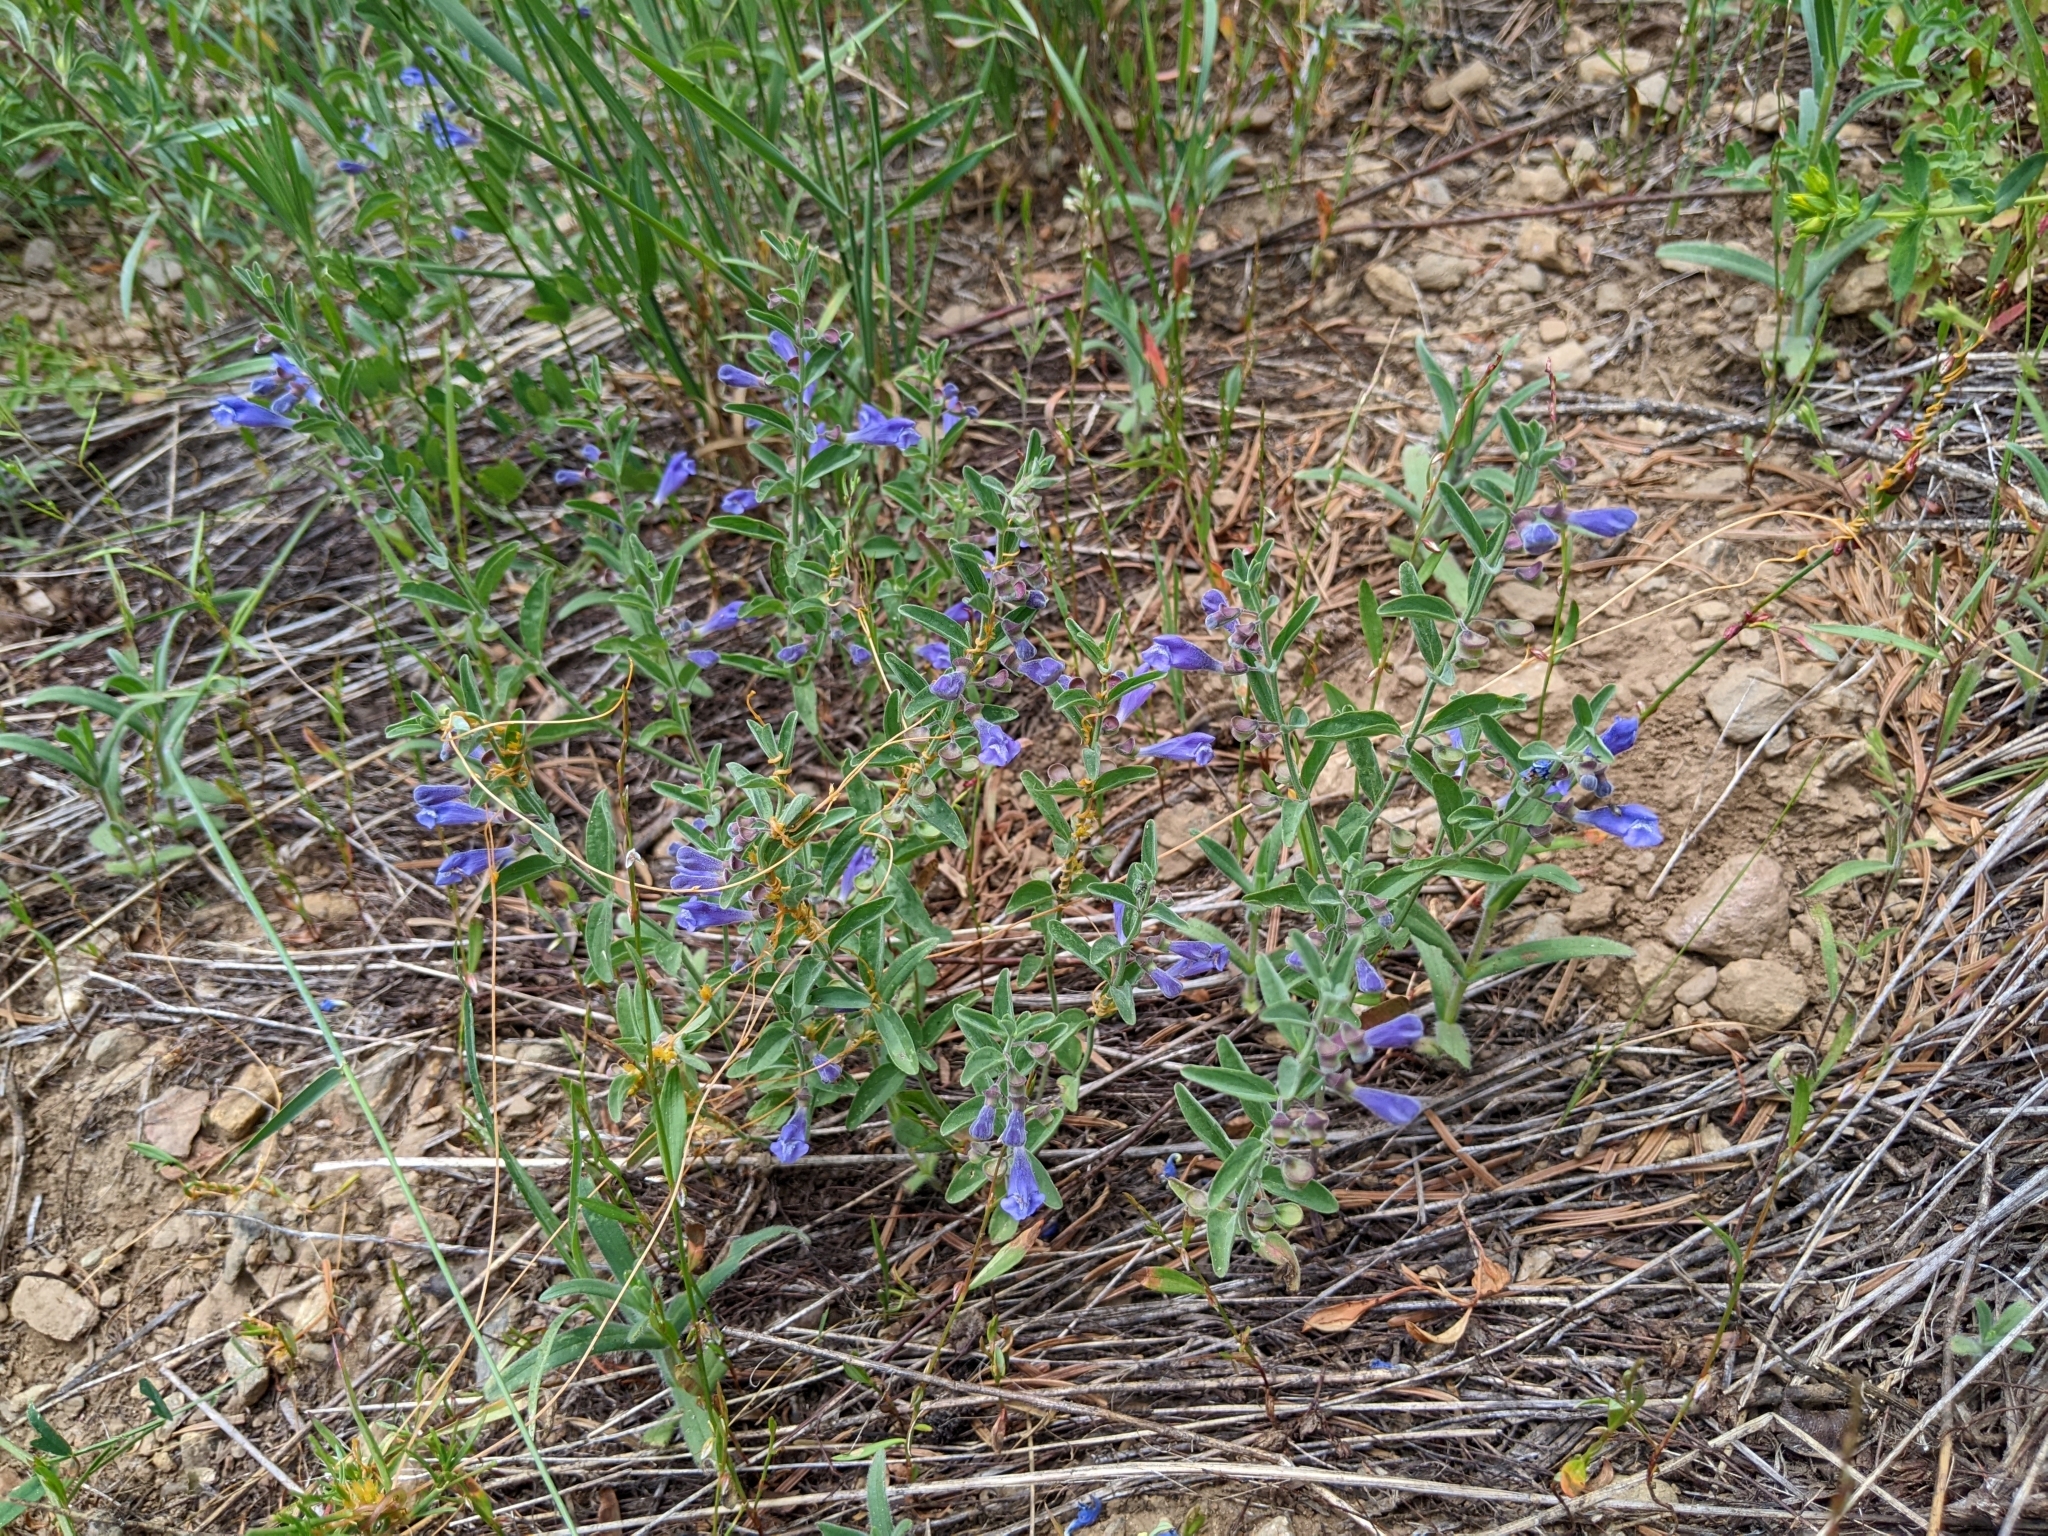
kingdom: Plantae
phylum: Tracheophyta
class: Magnoliopsida
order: Lamiales
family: Lamiaceae
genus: Scutellaria
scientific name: Scutellaria antirrhinoides
